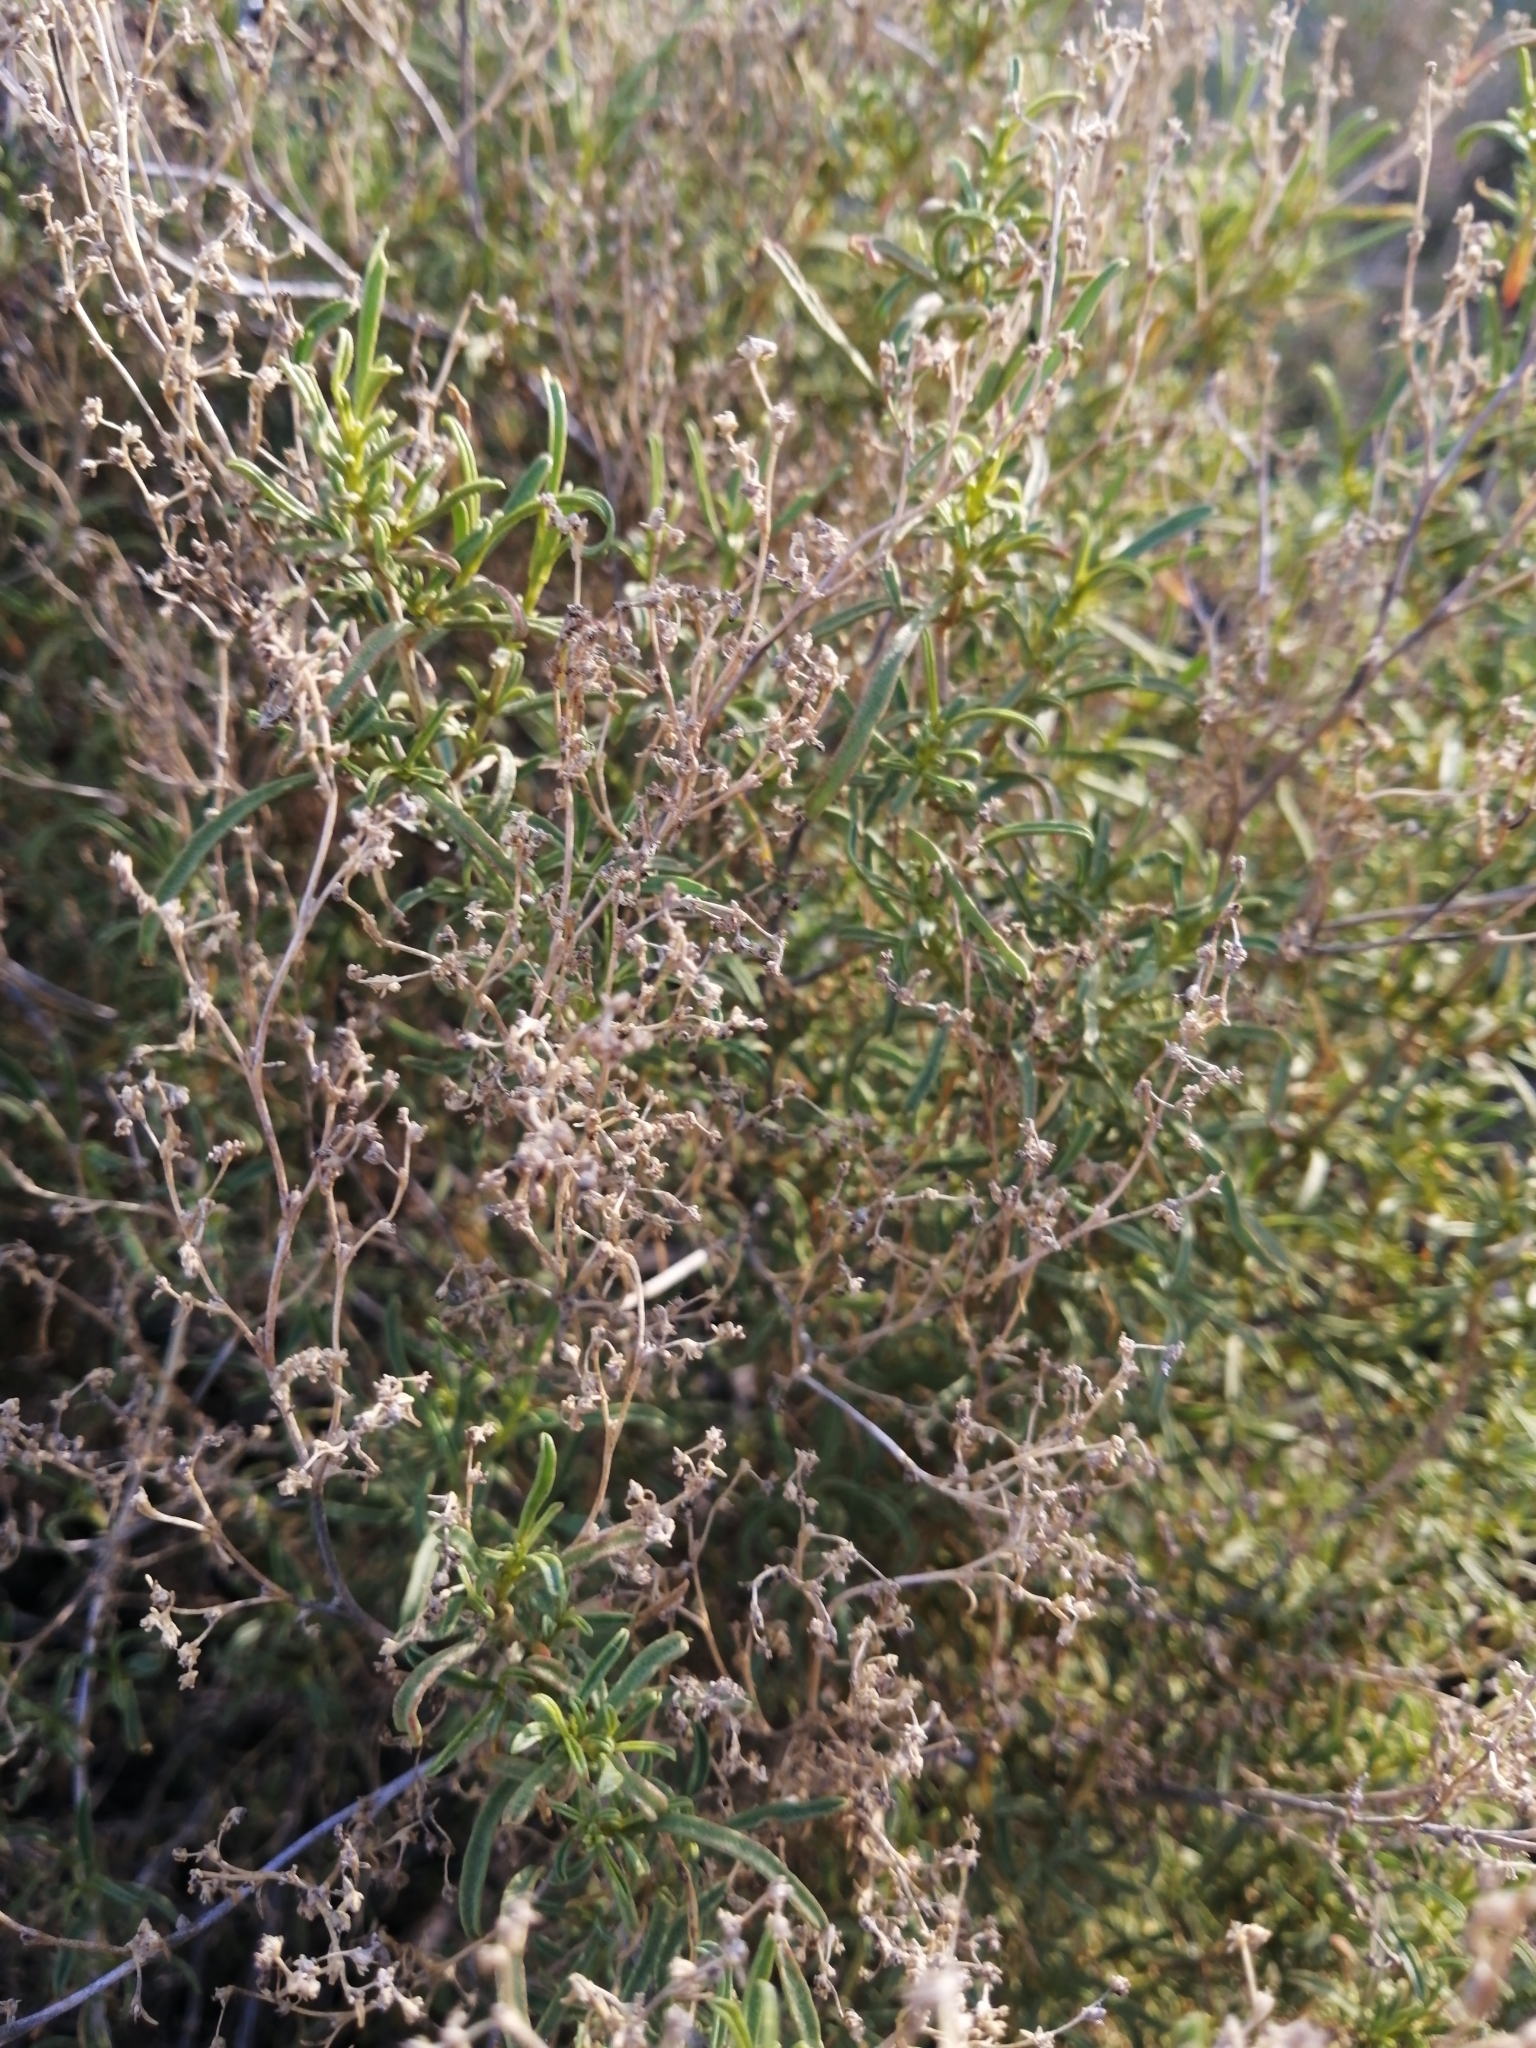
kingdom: Plantae
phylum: Tracheophyta
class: Magnoliopsida
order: Caryophyllales
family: Aizoaceae
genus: Aizoon
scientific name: Aizoon africanum
